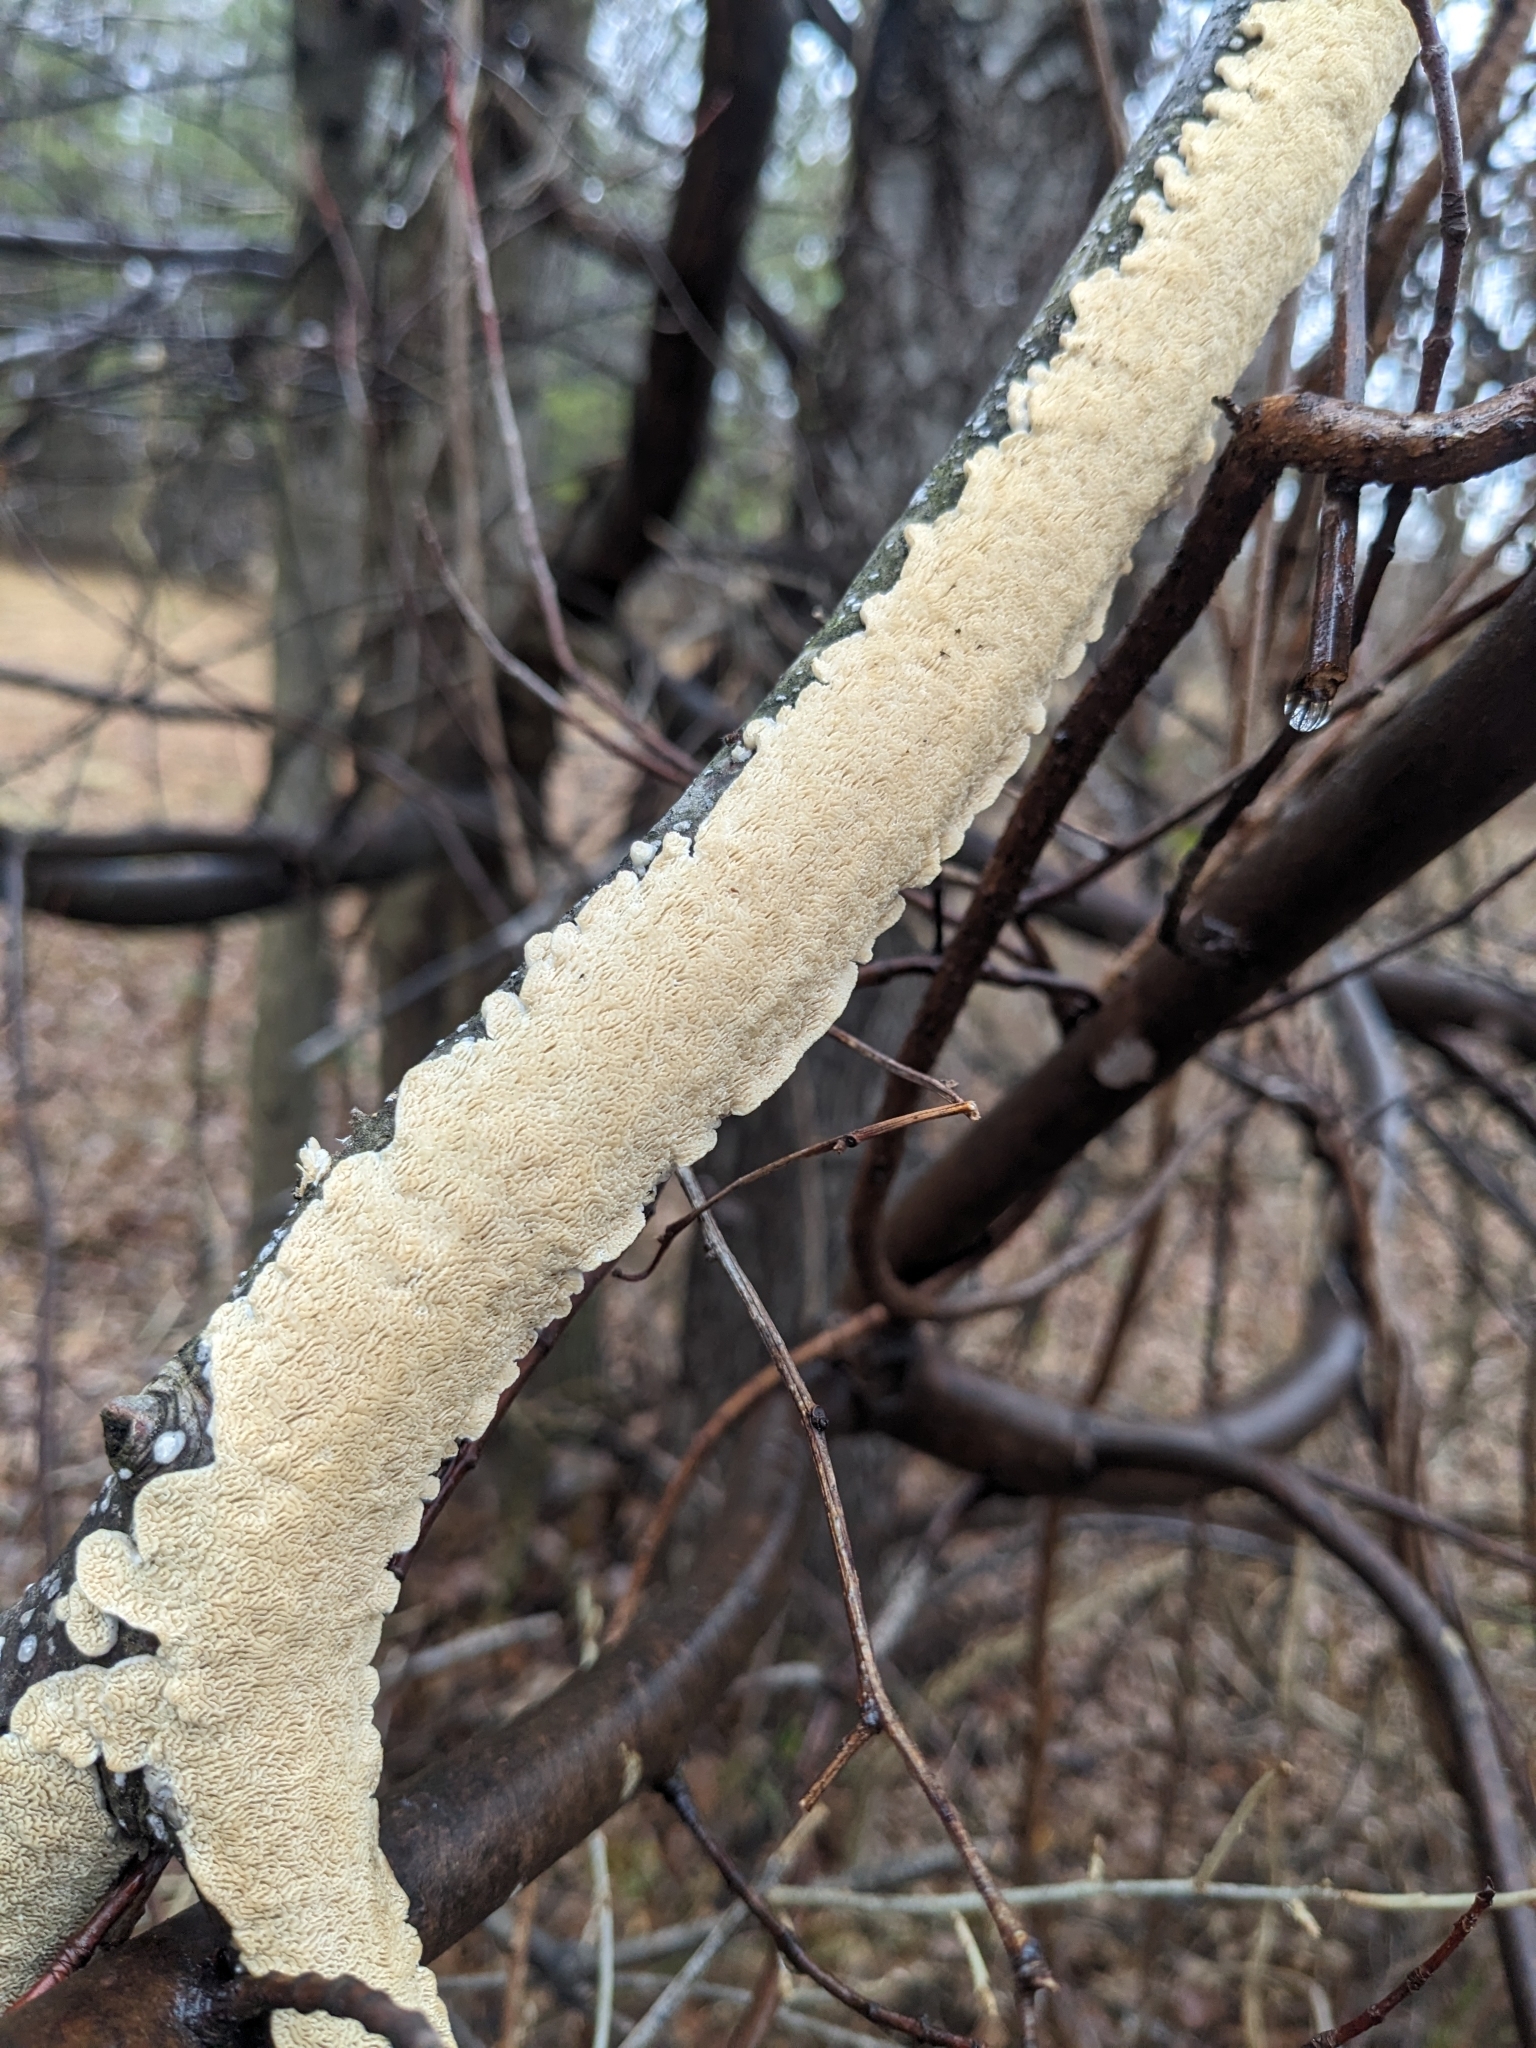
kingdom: Fungi
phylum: Basidiomycota
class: Agaricomycetes
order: Polyporales
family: Irpicaceae
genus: Irpex
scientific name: Irpex lacteus
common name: Milk-white toothed polypore
